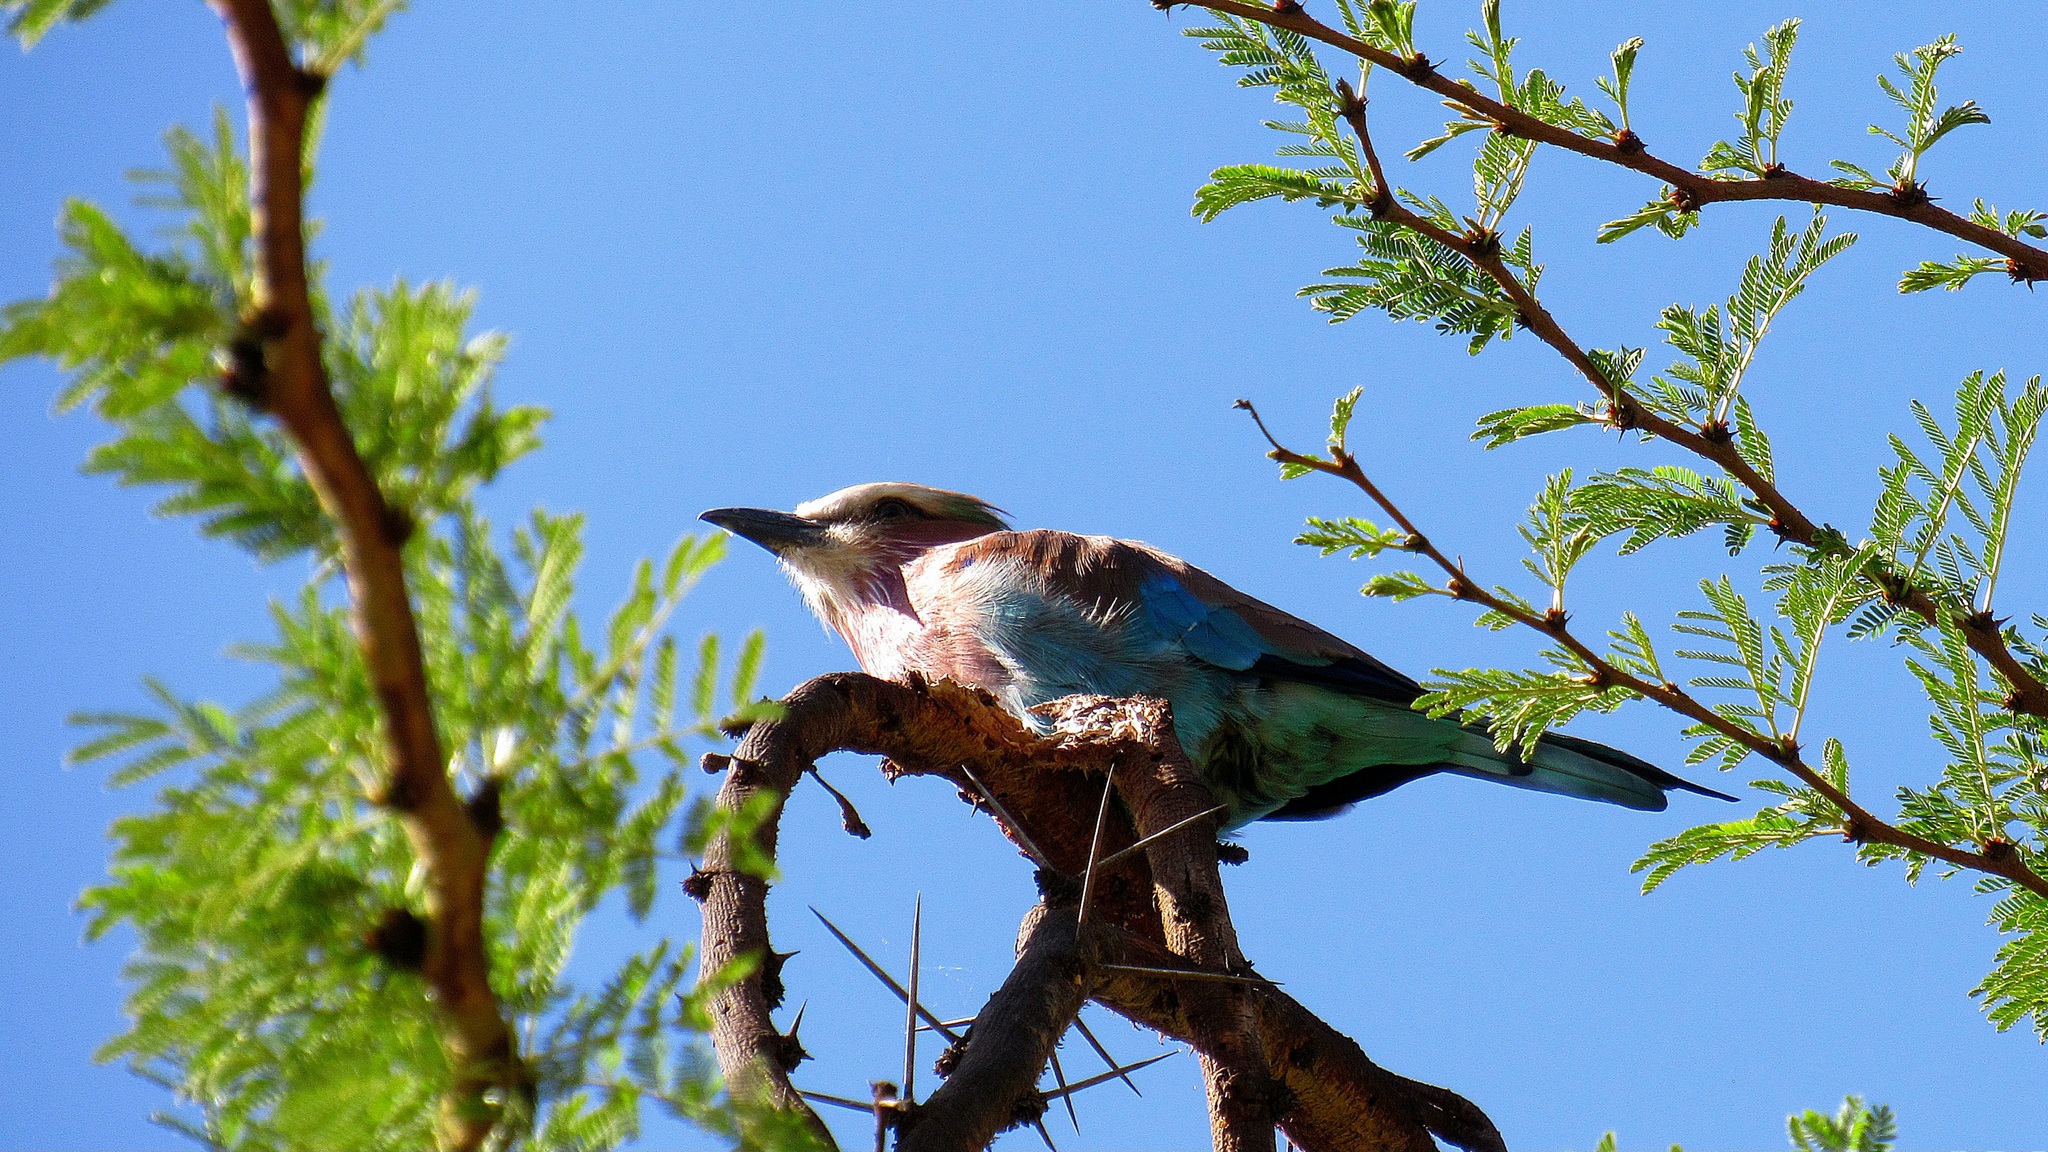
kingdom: Animalia
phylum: Chordata
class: Aves
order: Coraciiformes
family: Coraciidae
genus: Coracias
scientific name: Coracias caudatus
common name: Lilac-breasted roller
